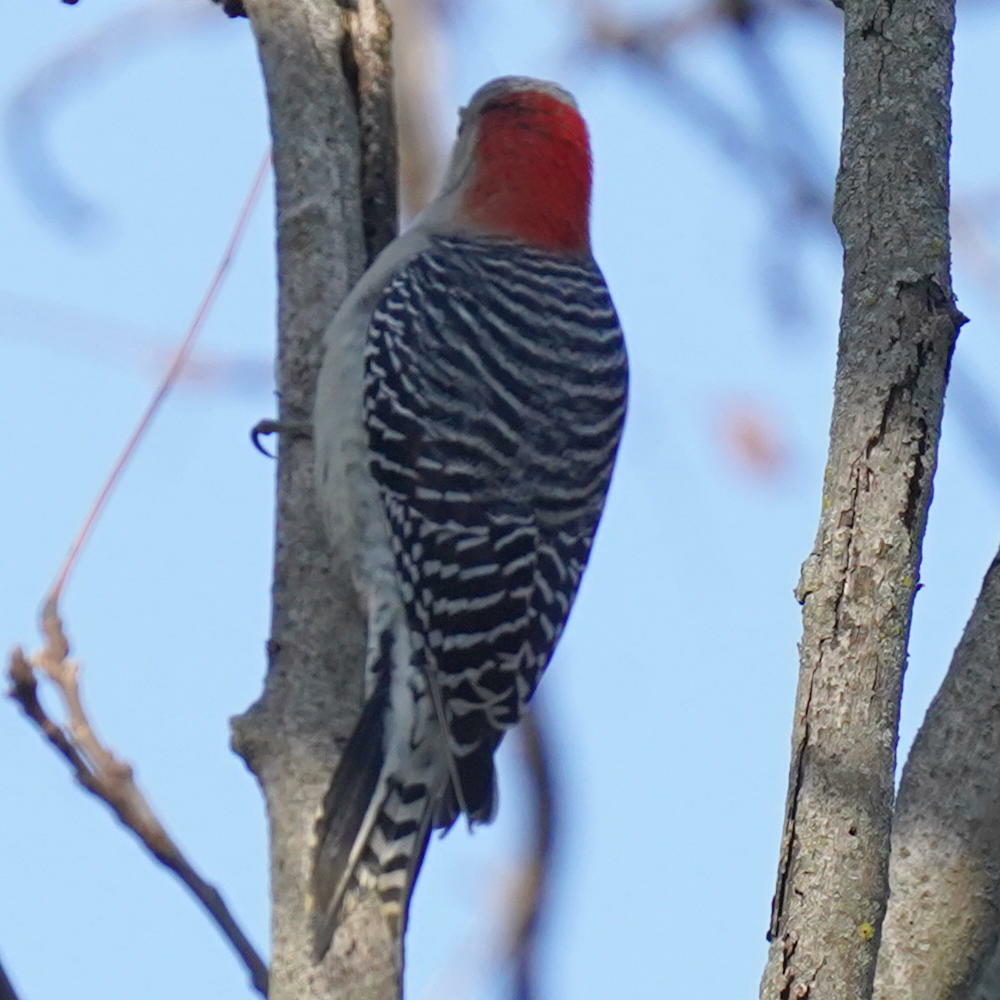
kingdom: Animalia
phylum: Chordata
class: Aves
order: Piciformes
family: Picidae
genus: Melanerpes
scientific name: Melanerpes carolinus
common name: Red-bellied woodpecker
